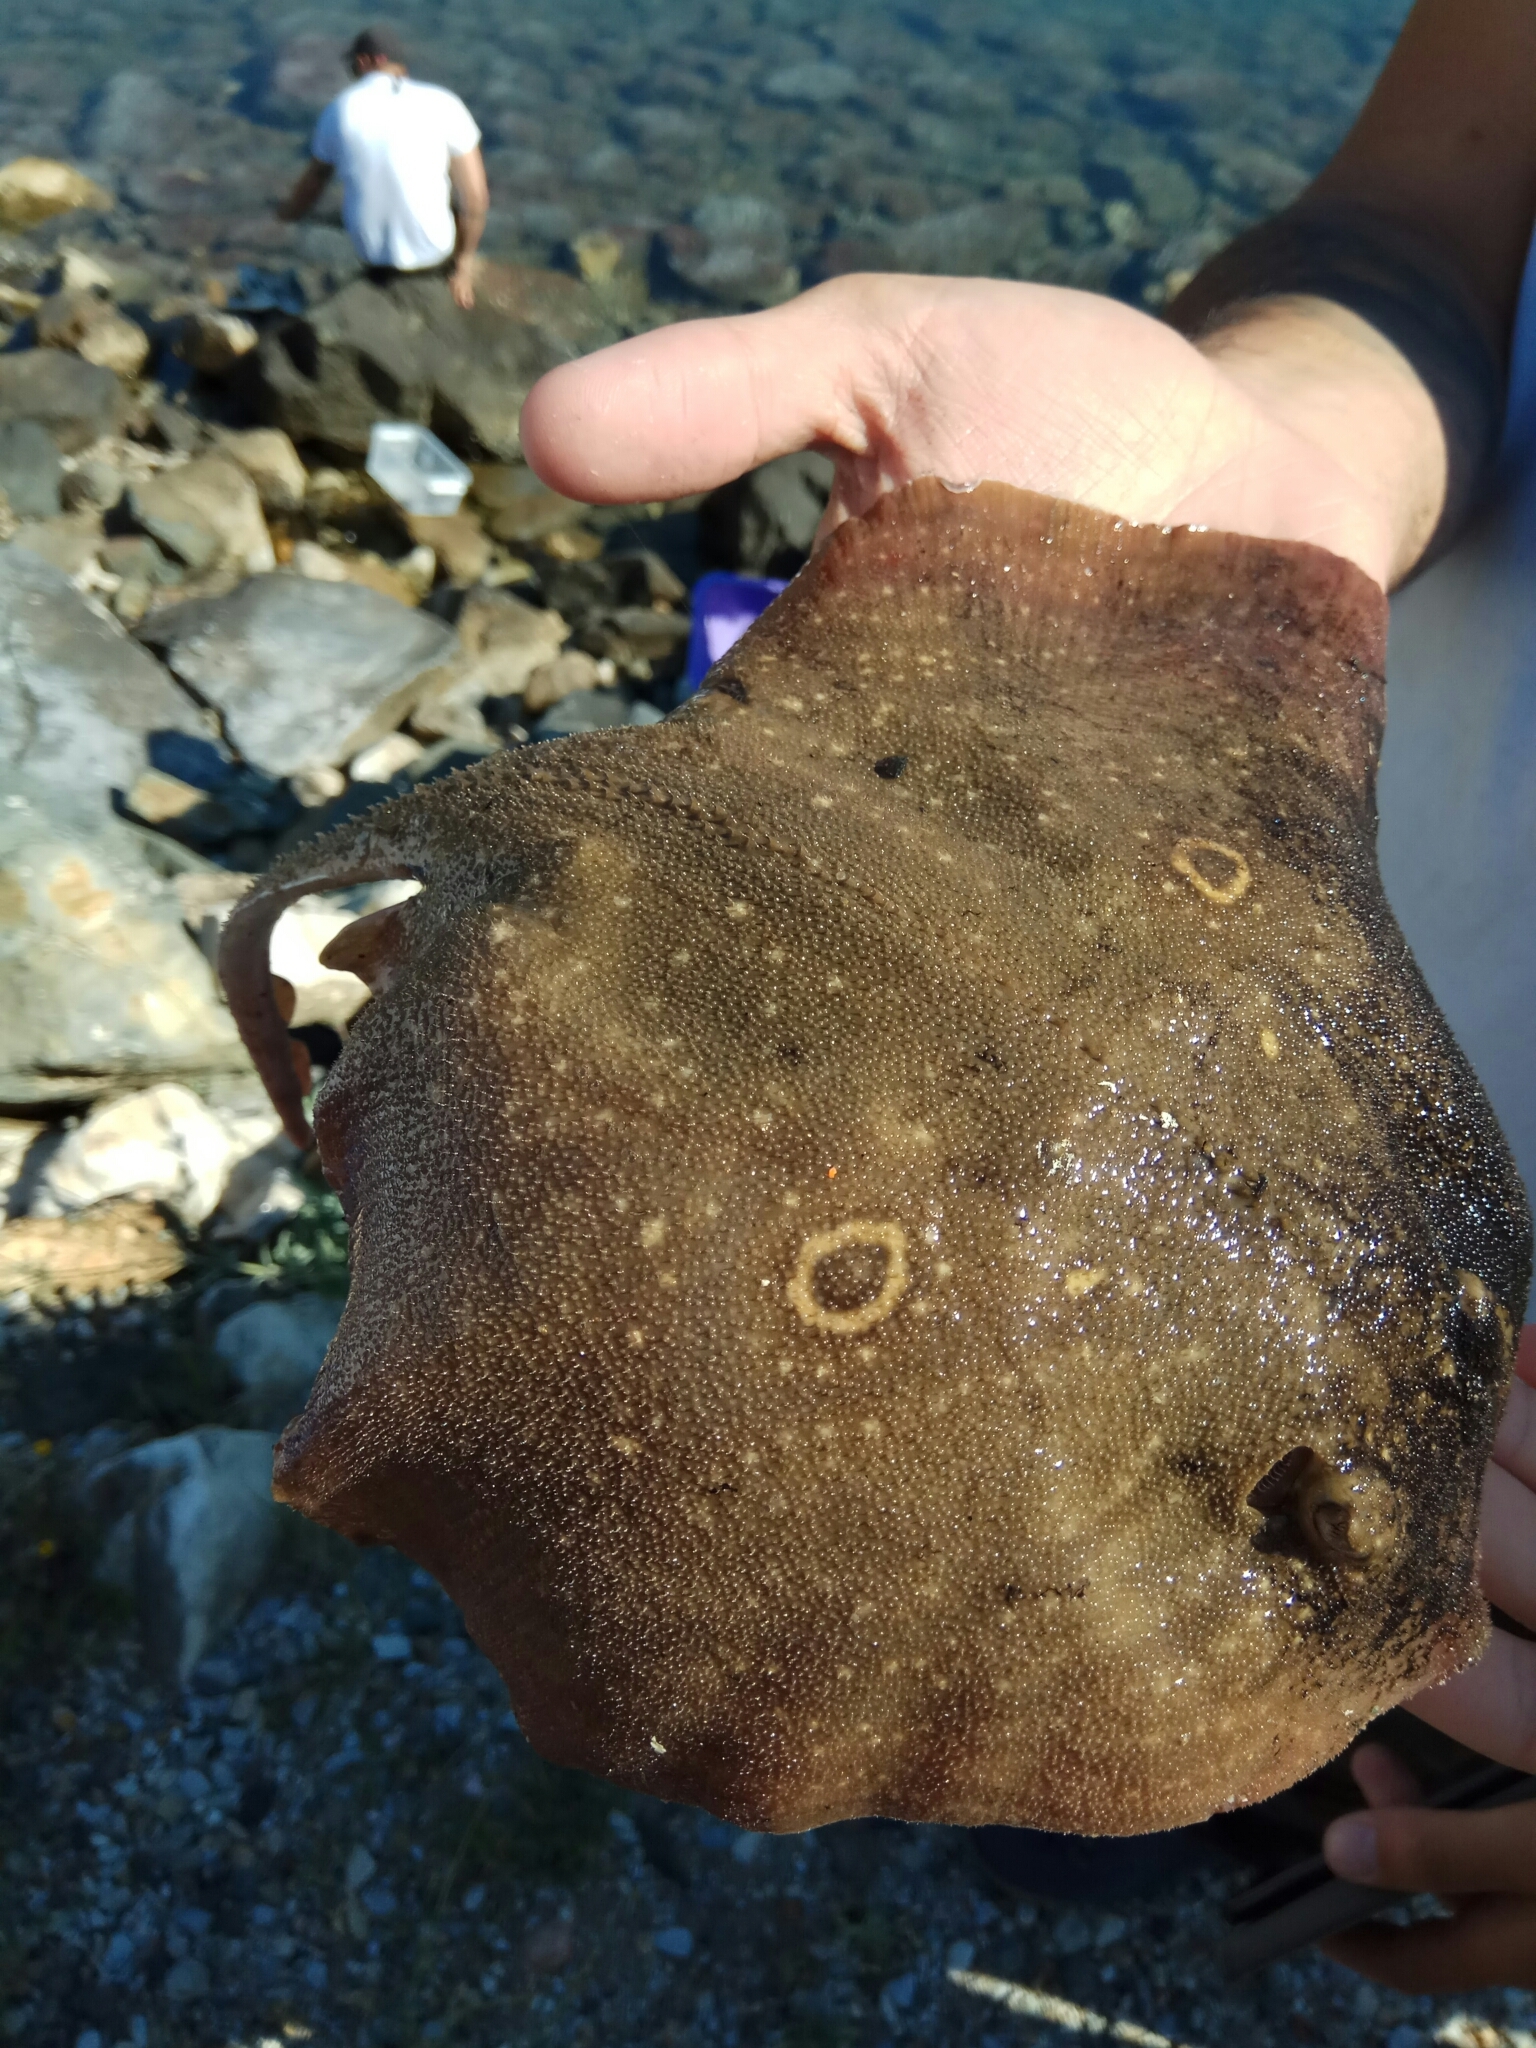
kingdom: Animalia
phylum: Chordata
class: Elasmobranchii
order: Rajiformes
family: Rajidae
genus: Raja
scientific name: Raja radula
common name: Rough ray
